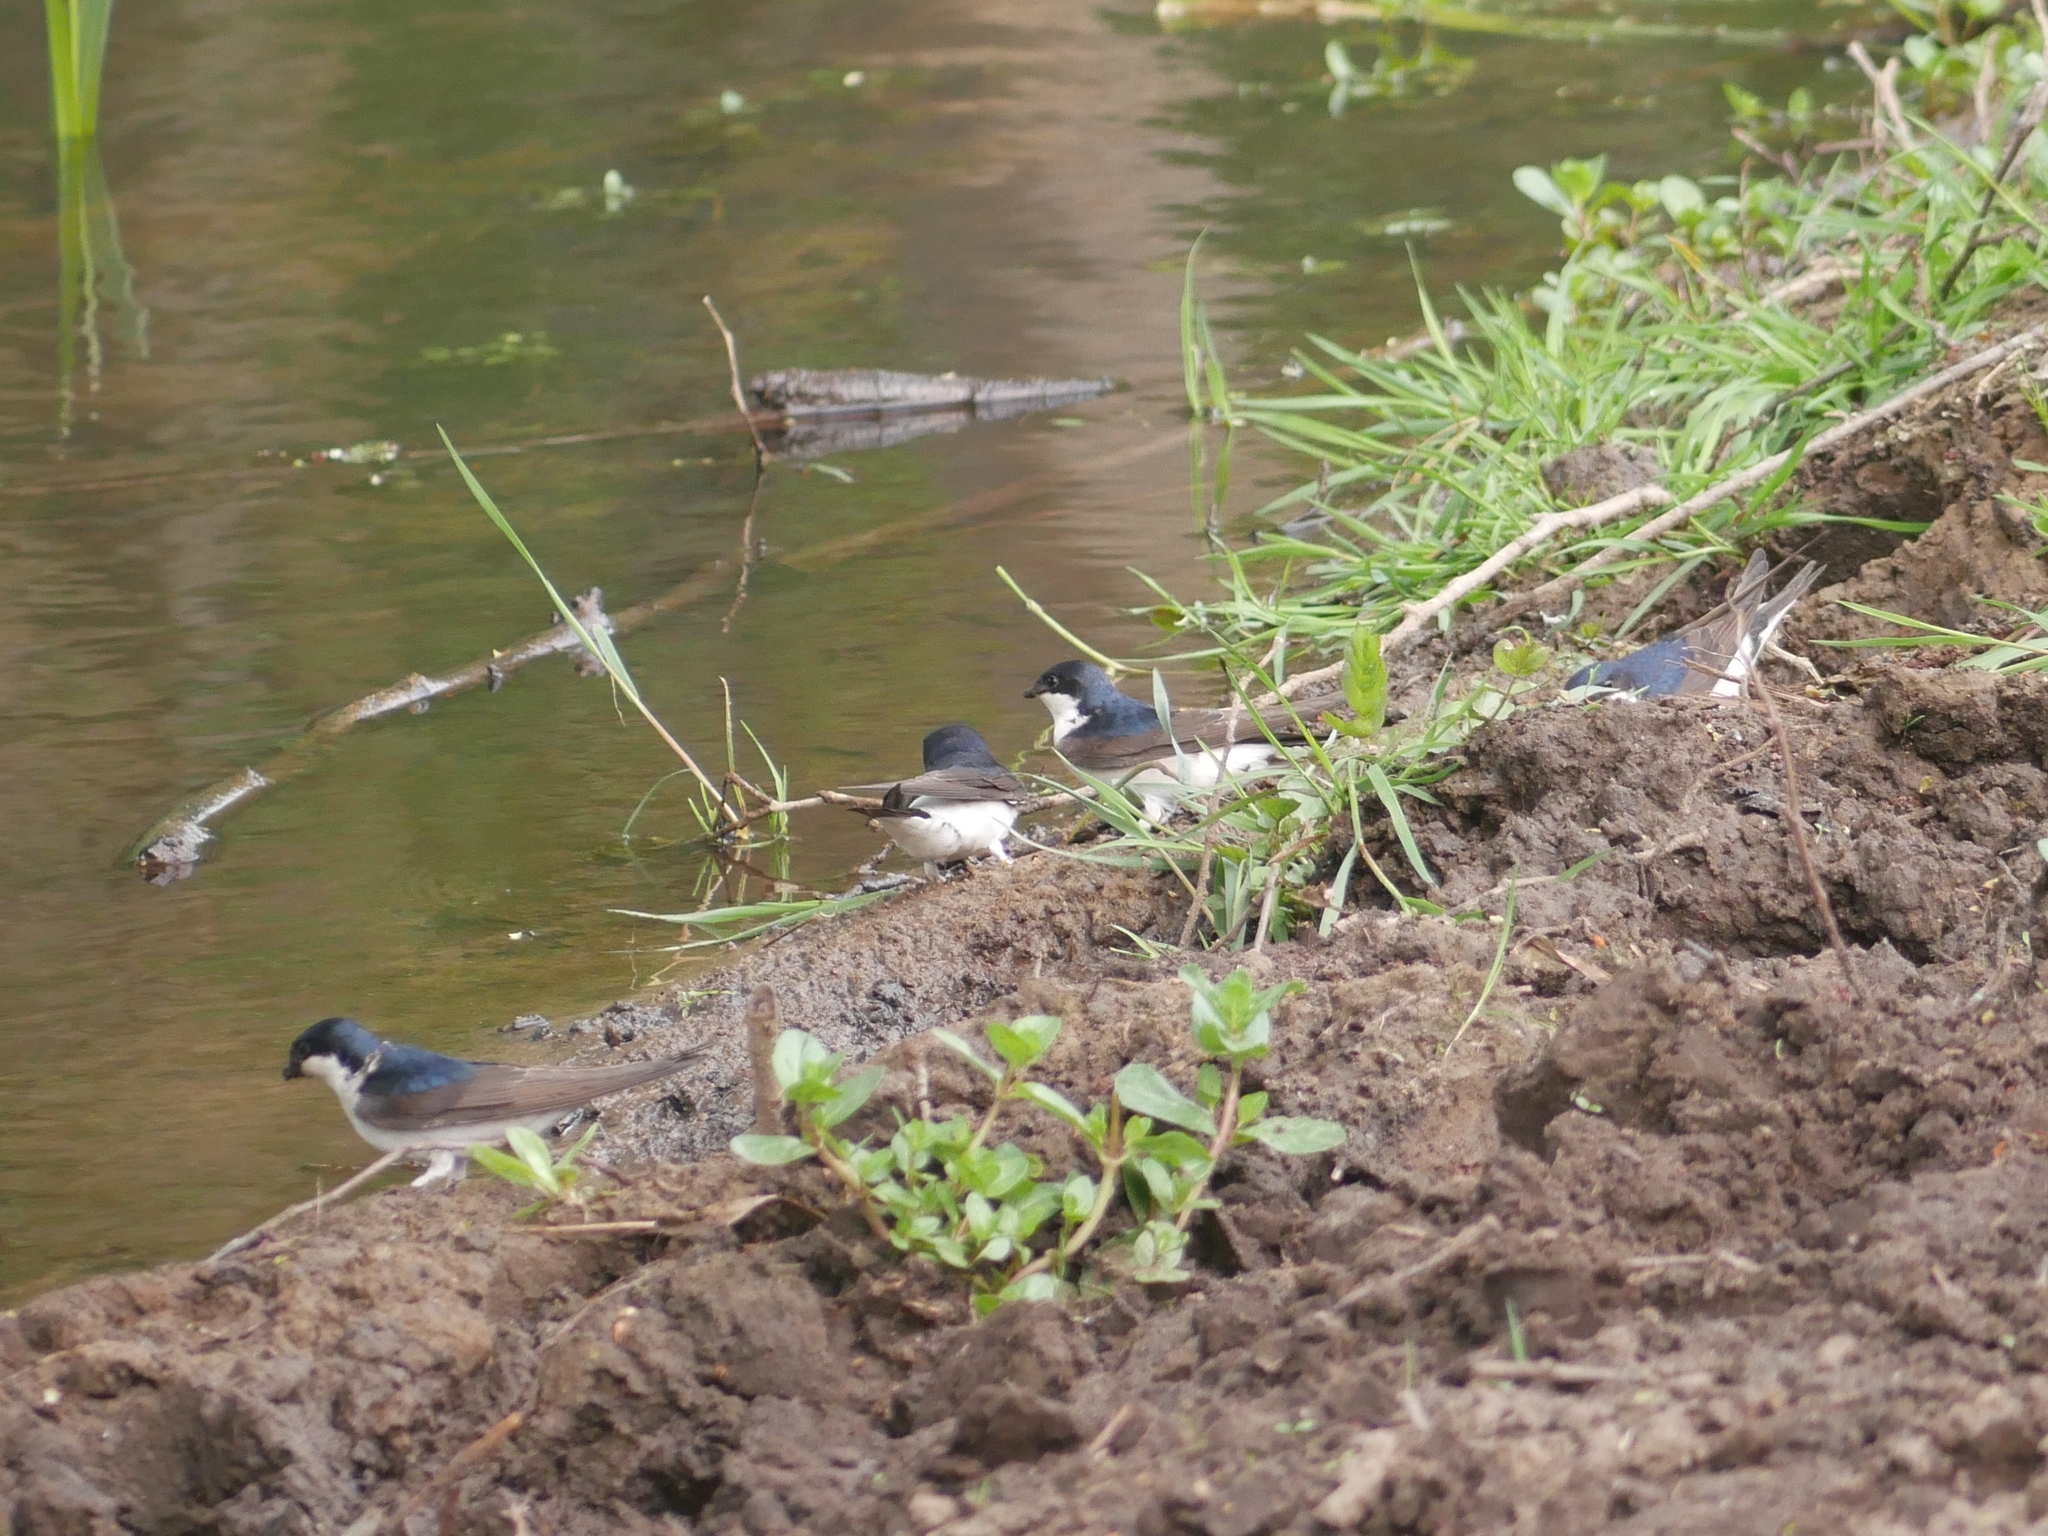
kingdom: Animalia
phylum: Chordata
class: Aves
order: Passeriformes
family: Hirundinidae
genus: Delichon
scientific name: Delichon urbicum
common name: Common house martin
